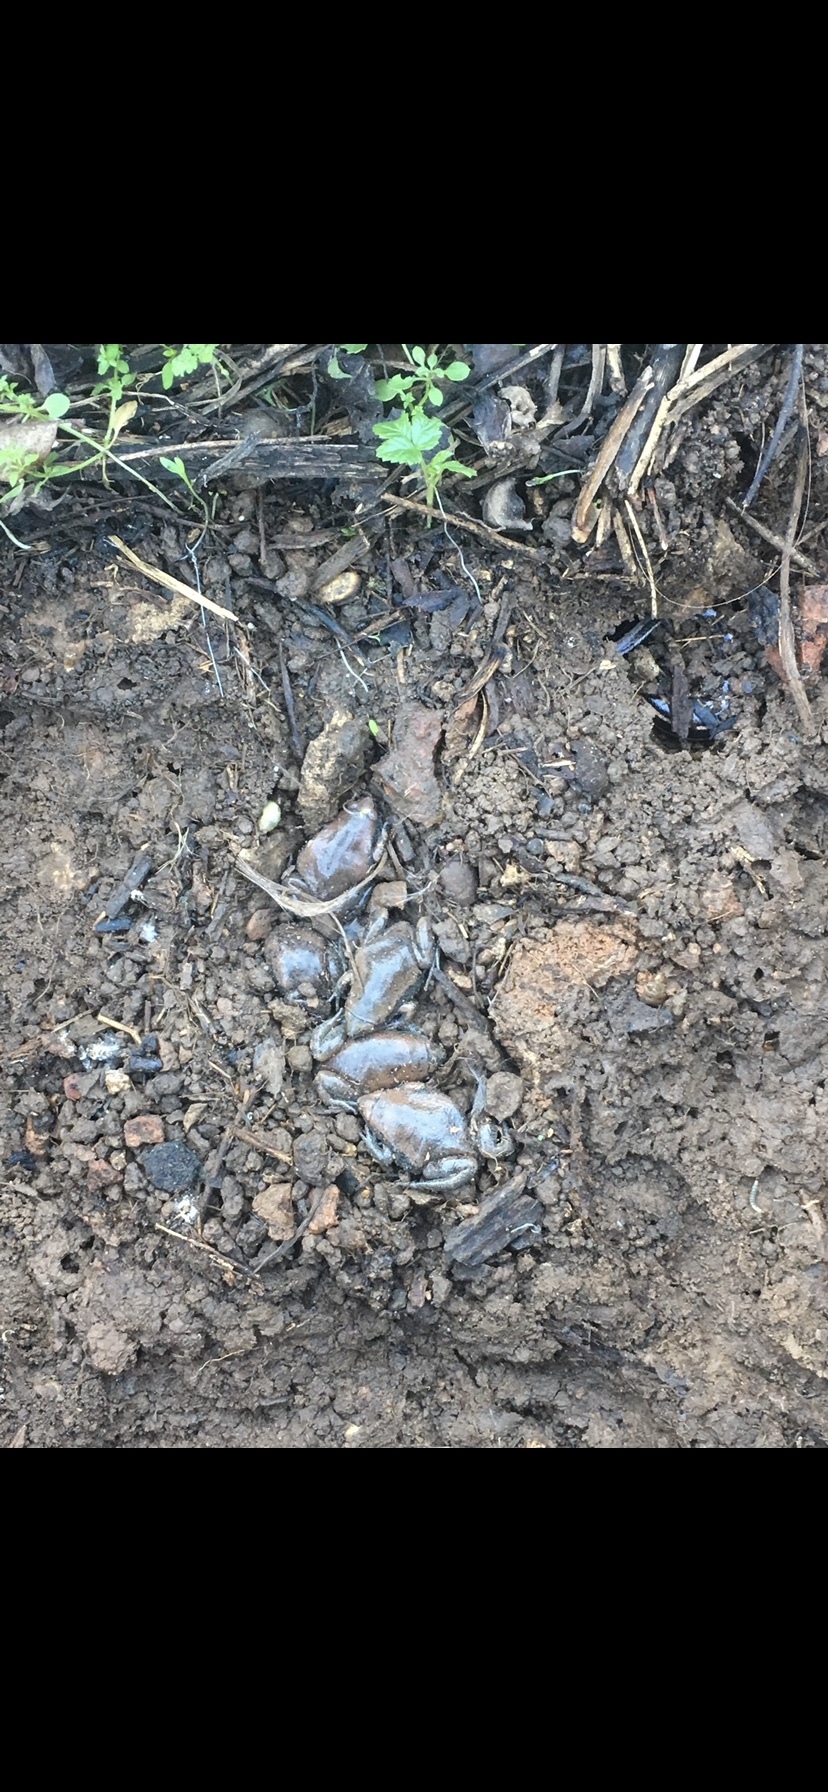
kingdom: Animalia
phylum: Chordata
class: Amphibia
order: Anura
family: Microhylidae
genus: Gastrophryne
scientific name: Gastrophryne carolinensis
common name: Eastern narrowmouth toad
